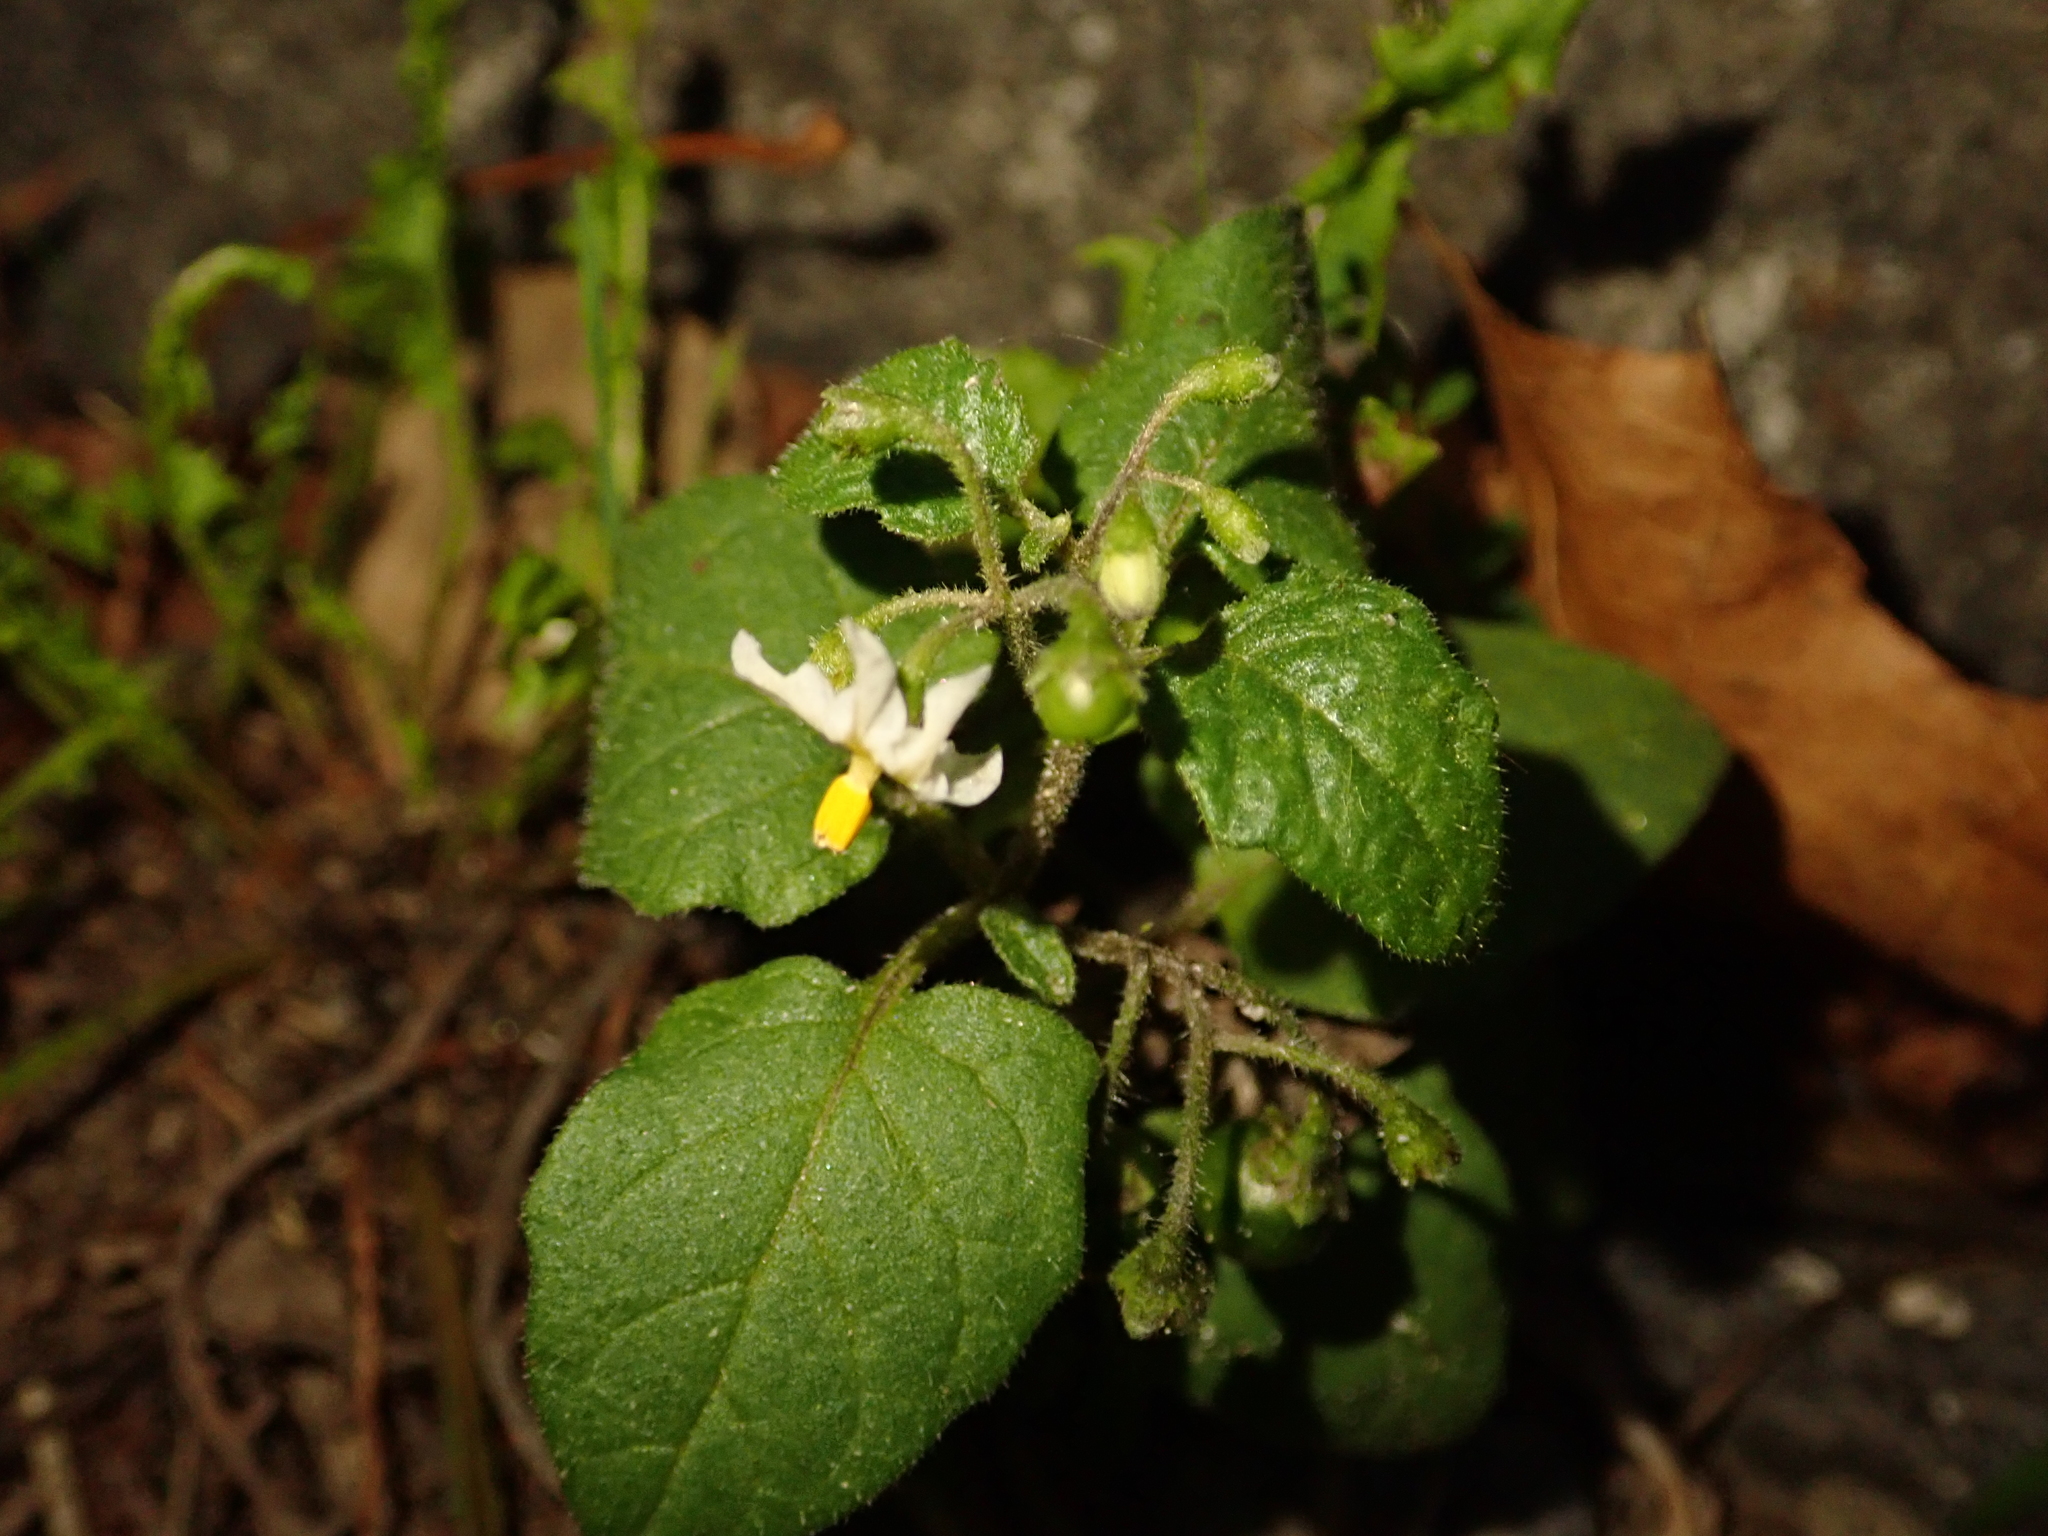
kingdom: Plantae
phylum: Tracheophyta
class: Magnoliopsida
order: Solanales
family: Solanaceae
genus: Solanum
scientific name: Solanum nigrum
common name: Black nightshade
